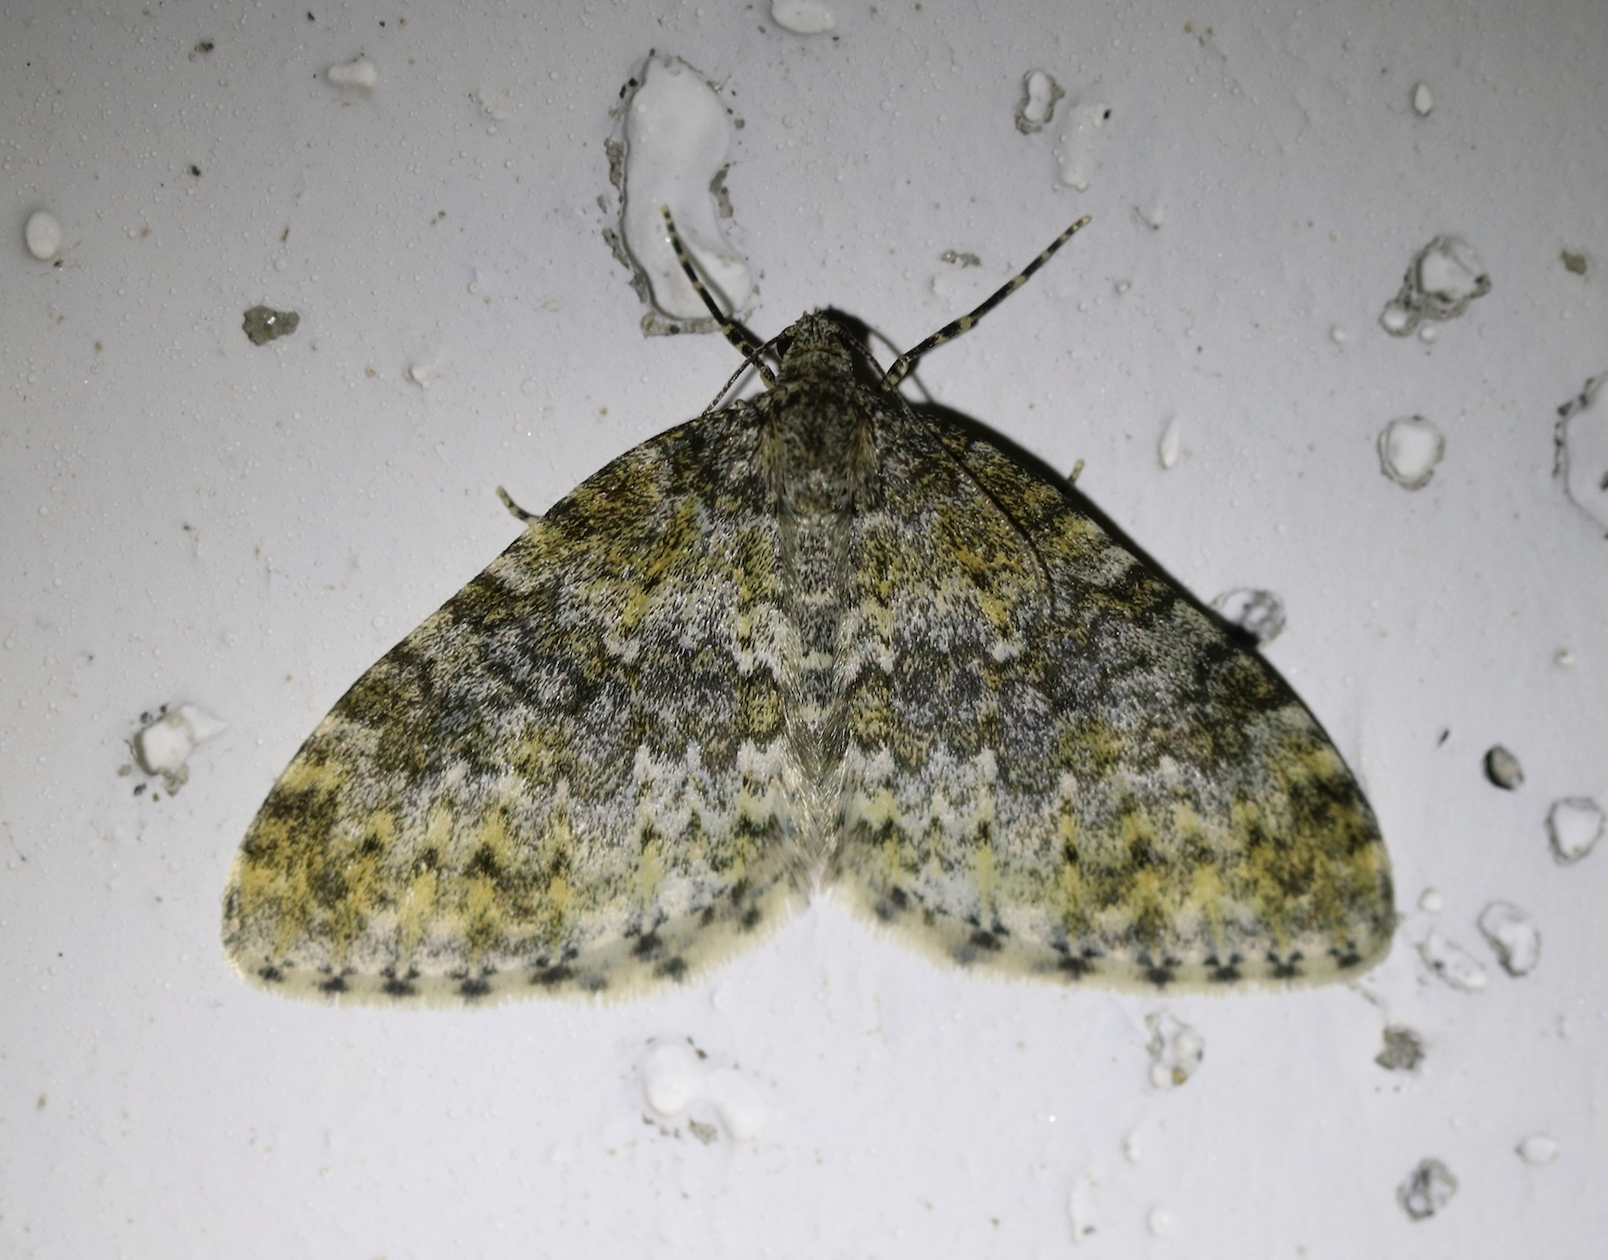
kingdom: Animalia
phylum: Arthropoda
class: Insecta
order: Lepidoptera
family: Geometridae
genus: Entephria
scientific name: Entephria flavicinctata
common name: Yellow-ringed carpet
